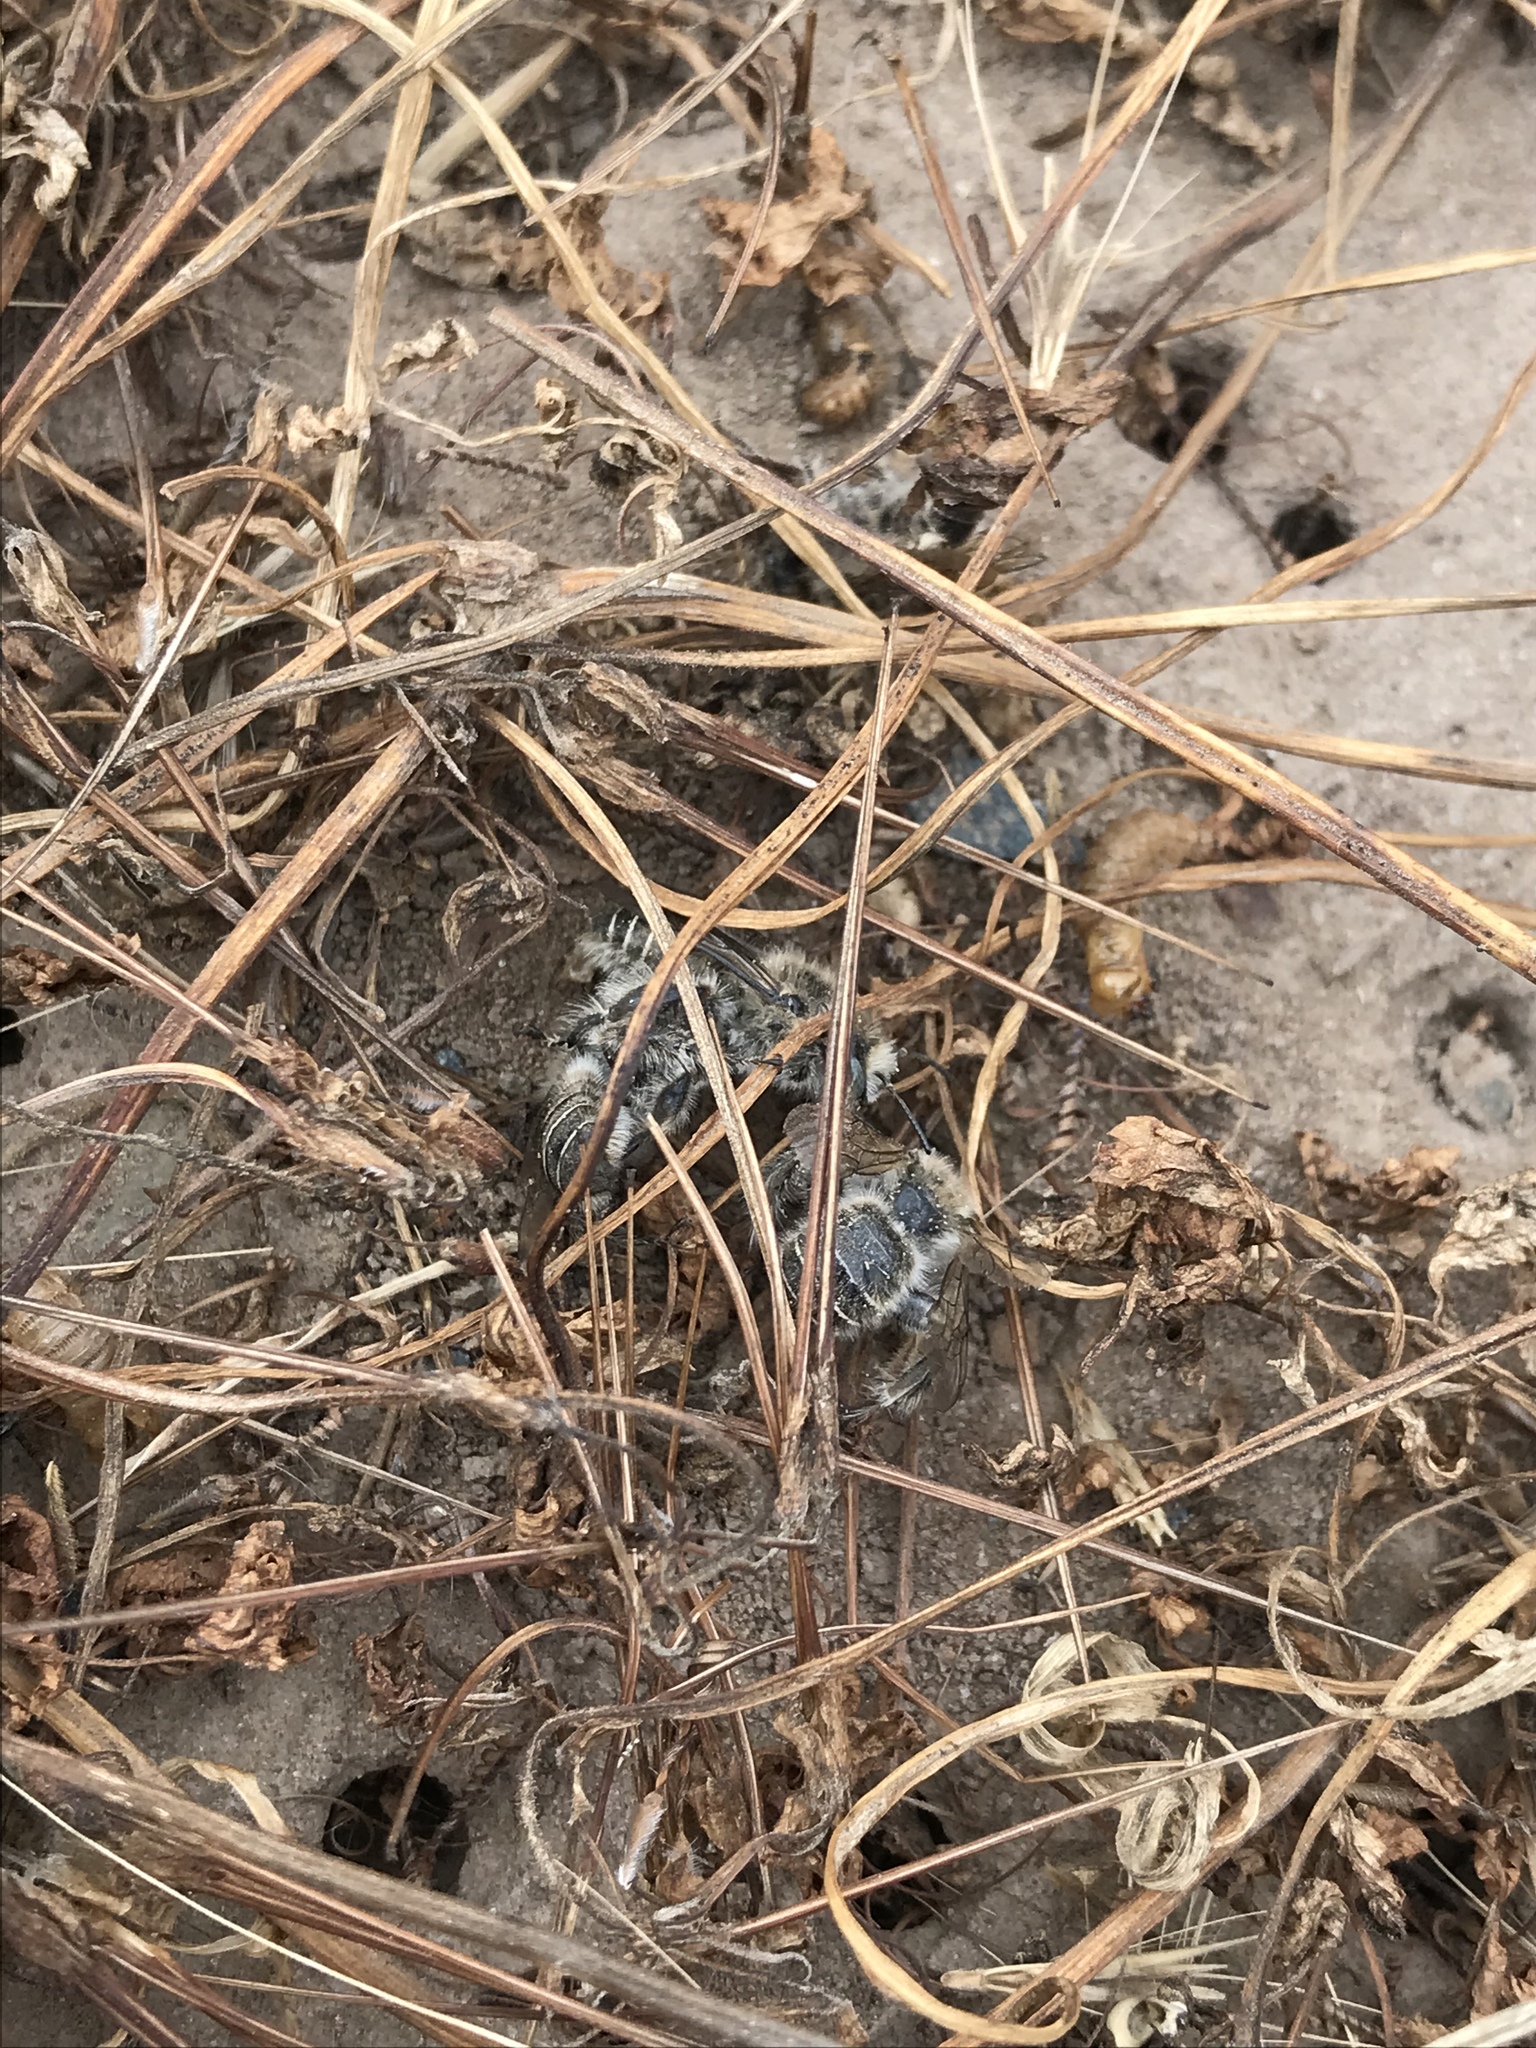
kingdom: Animalia
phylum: Arthropoda
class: Insecta
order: Hymenoptera
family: Apidae
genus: Diadasia
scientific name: Diadasia bituberculata
